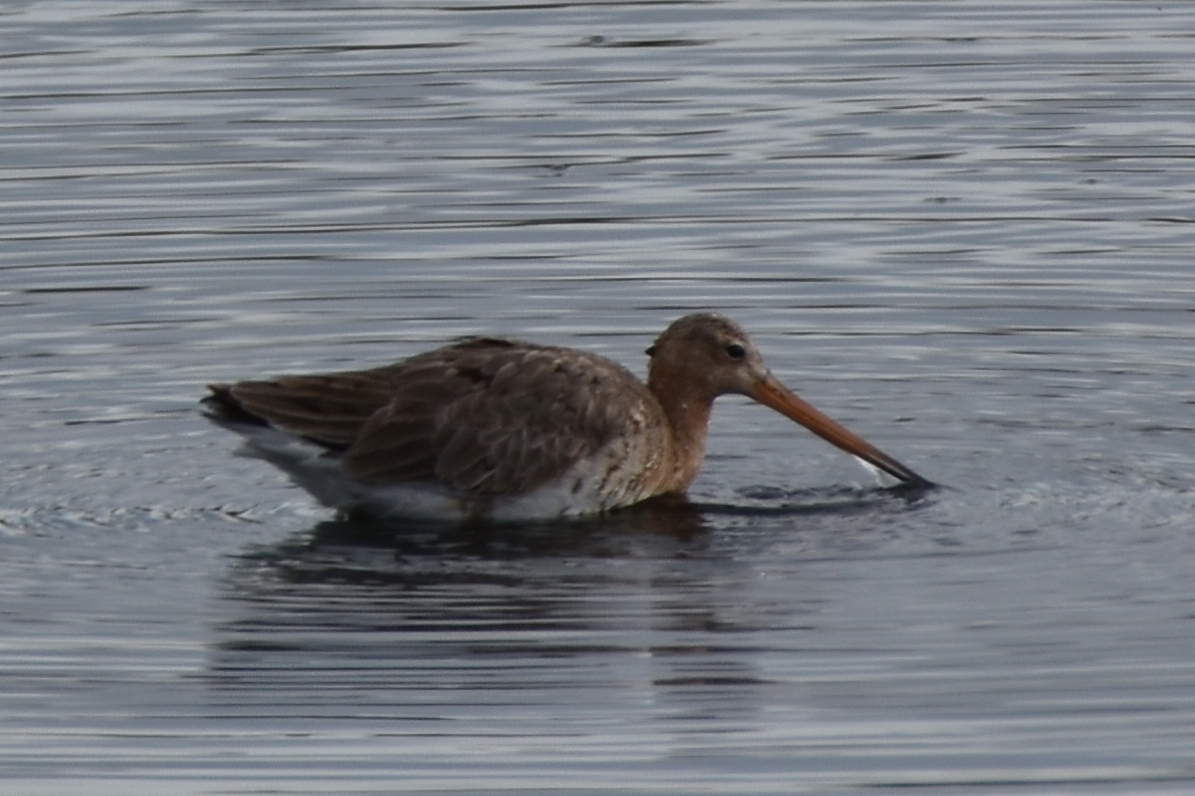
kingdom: Animalia
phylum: Chordata
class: Aves
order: Charadriiformes
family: Scolopacidae
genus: Limosa
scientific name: Limosa limosa
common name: Black-tailed godwit
